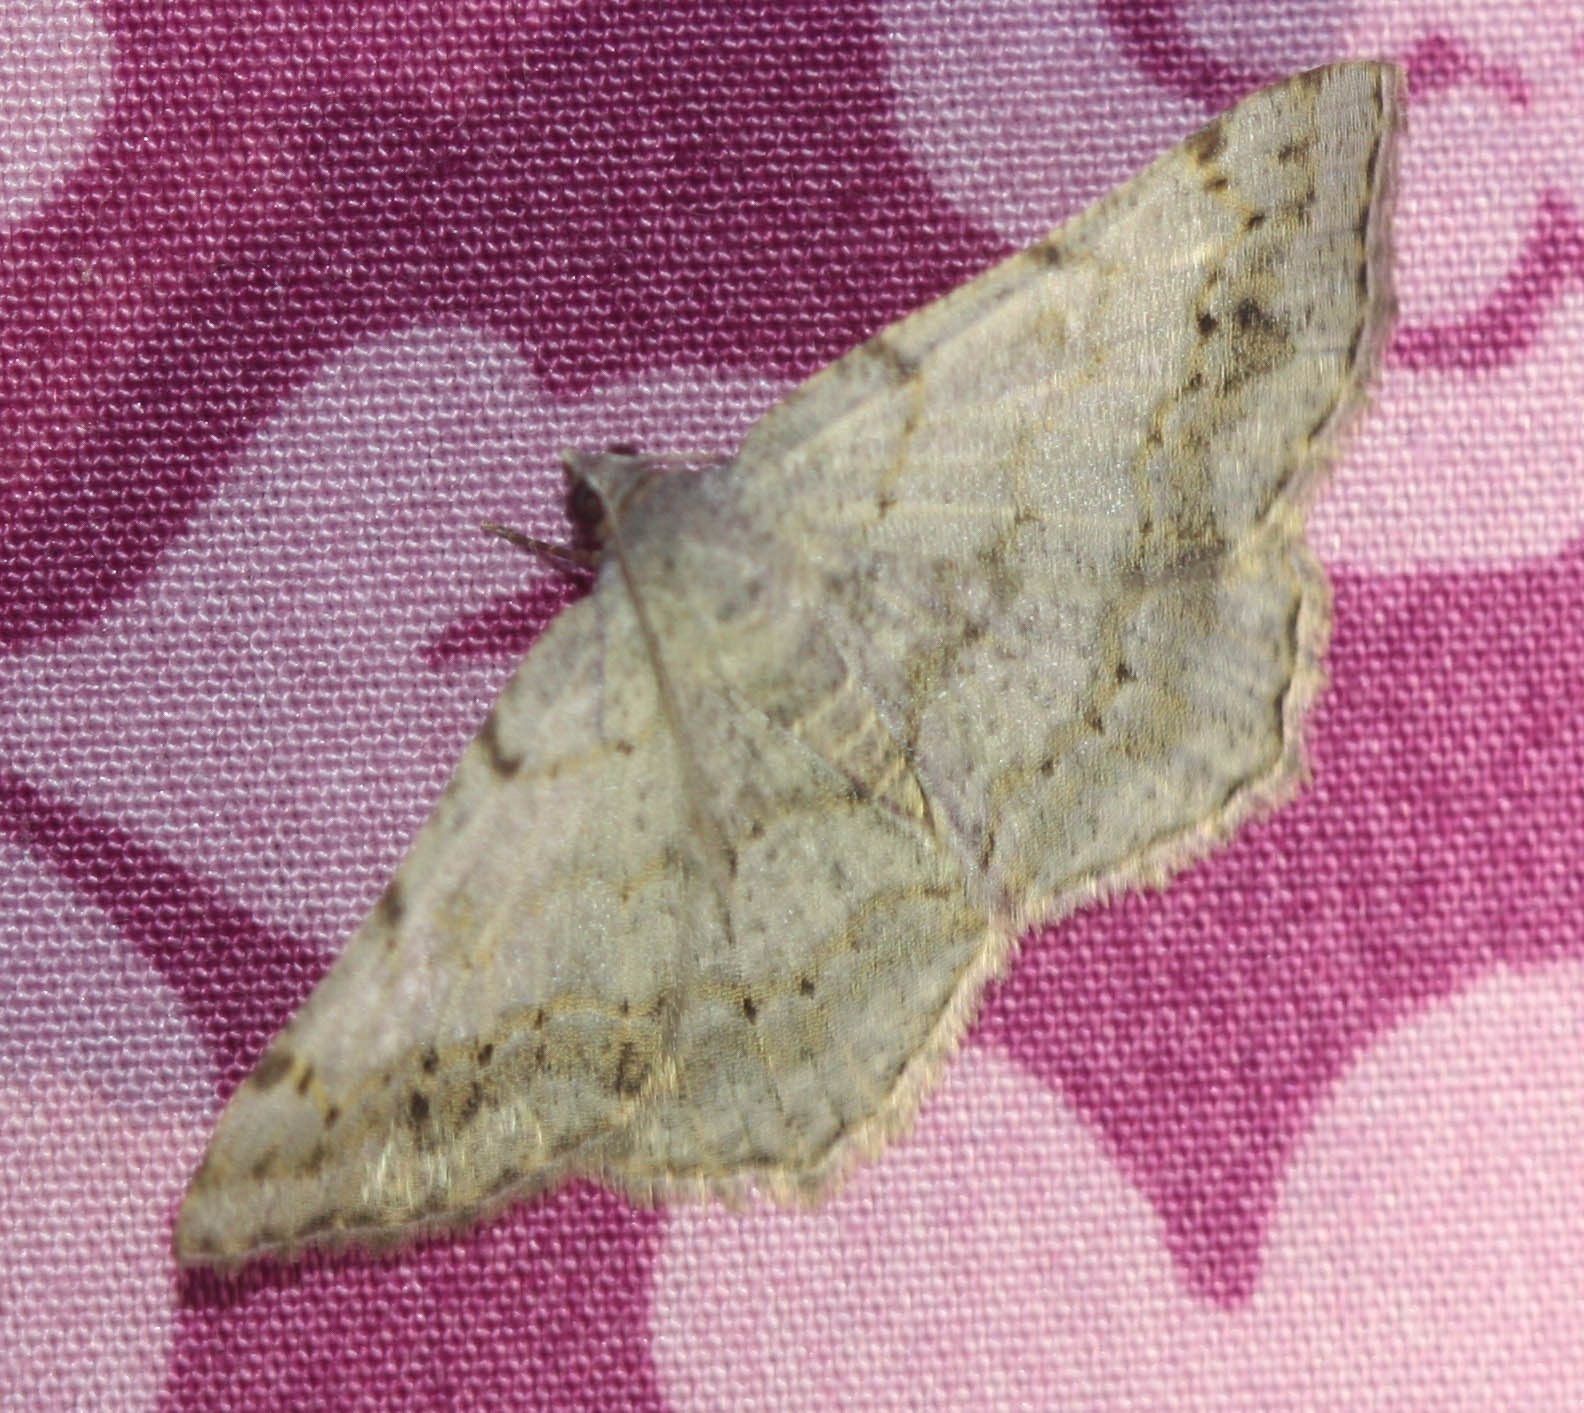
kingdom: Animalia
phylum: Arthropoda
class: Insecta
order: Lepidoptera
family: Geometridae
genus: Digrammia
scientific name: Digrammia ocellinata
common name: Faint-spotted angle
